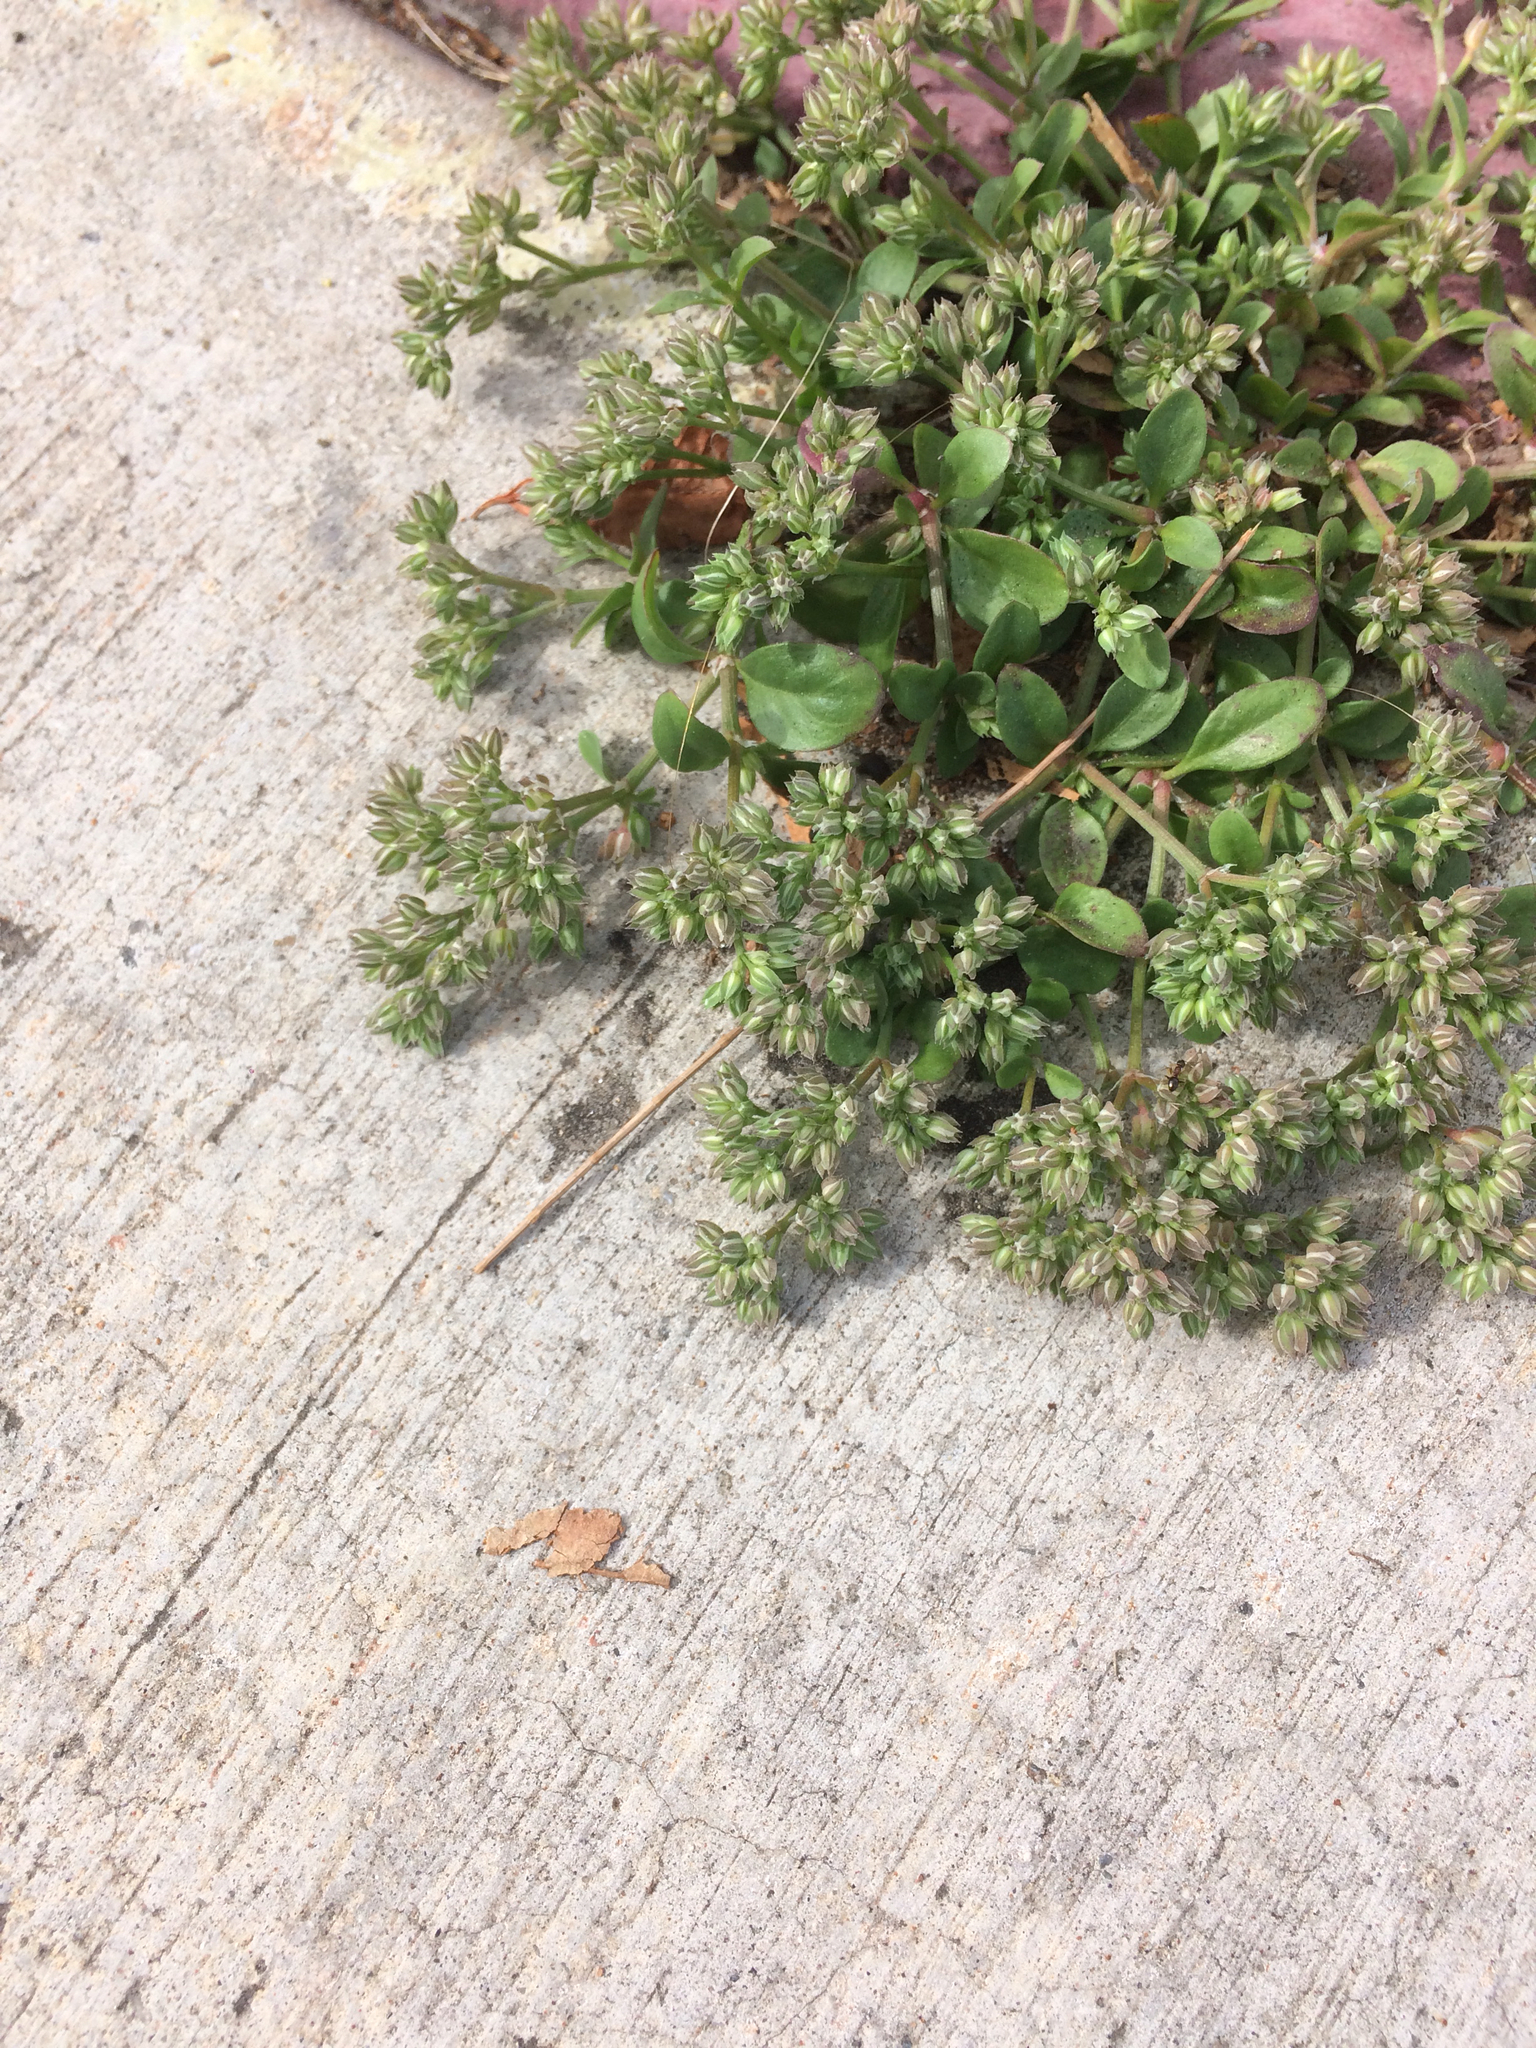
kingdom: Plantae
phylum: Tracheophyta
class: Magnoliopsida
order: Caryophyllales
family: Caryophyllaceae
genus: Polycarpon
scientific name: Polycarpon tetraphyllum
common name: Four-leaved all-seed
